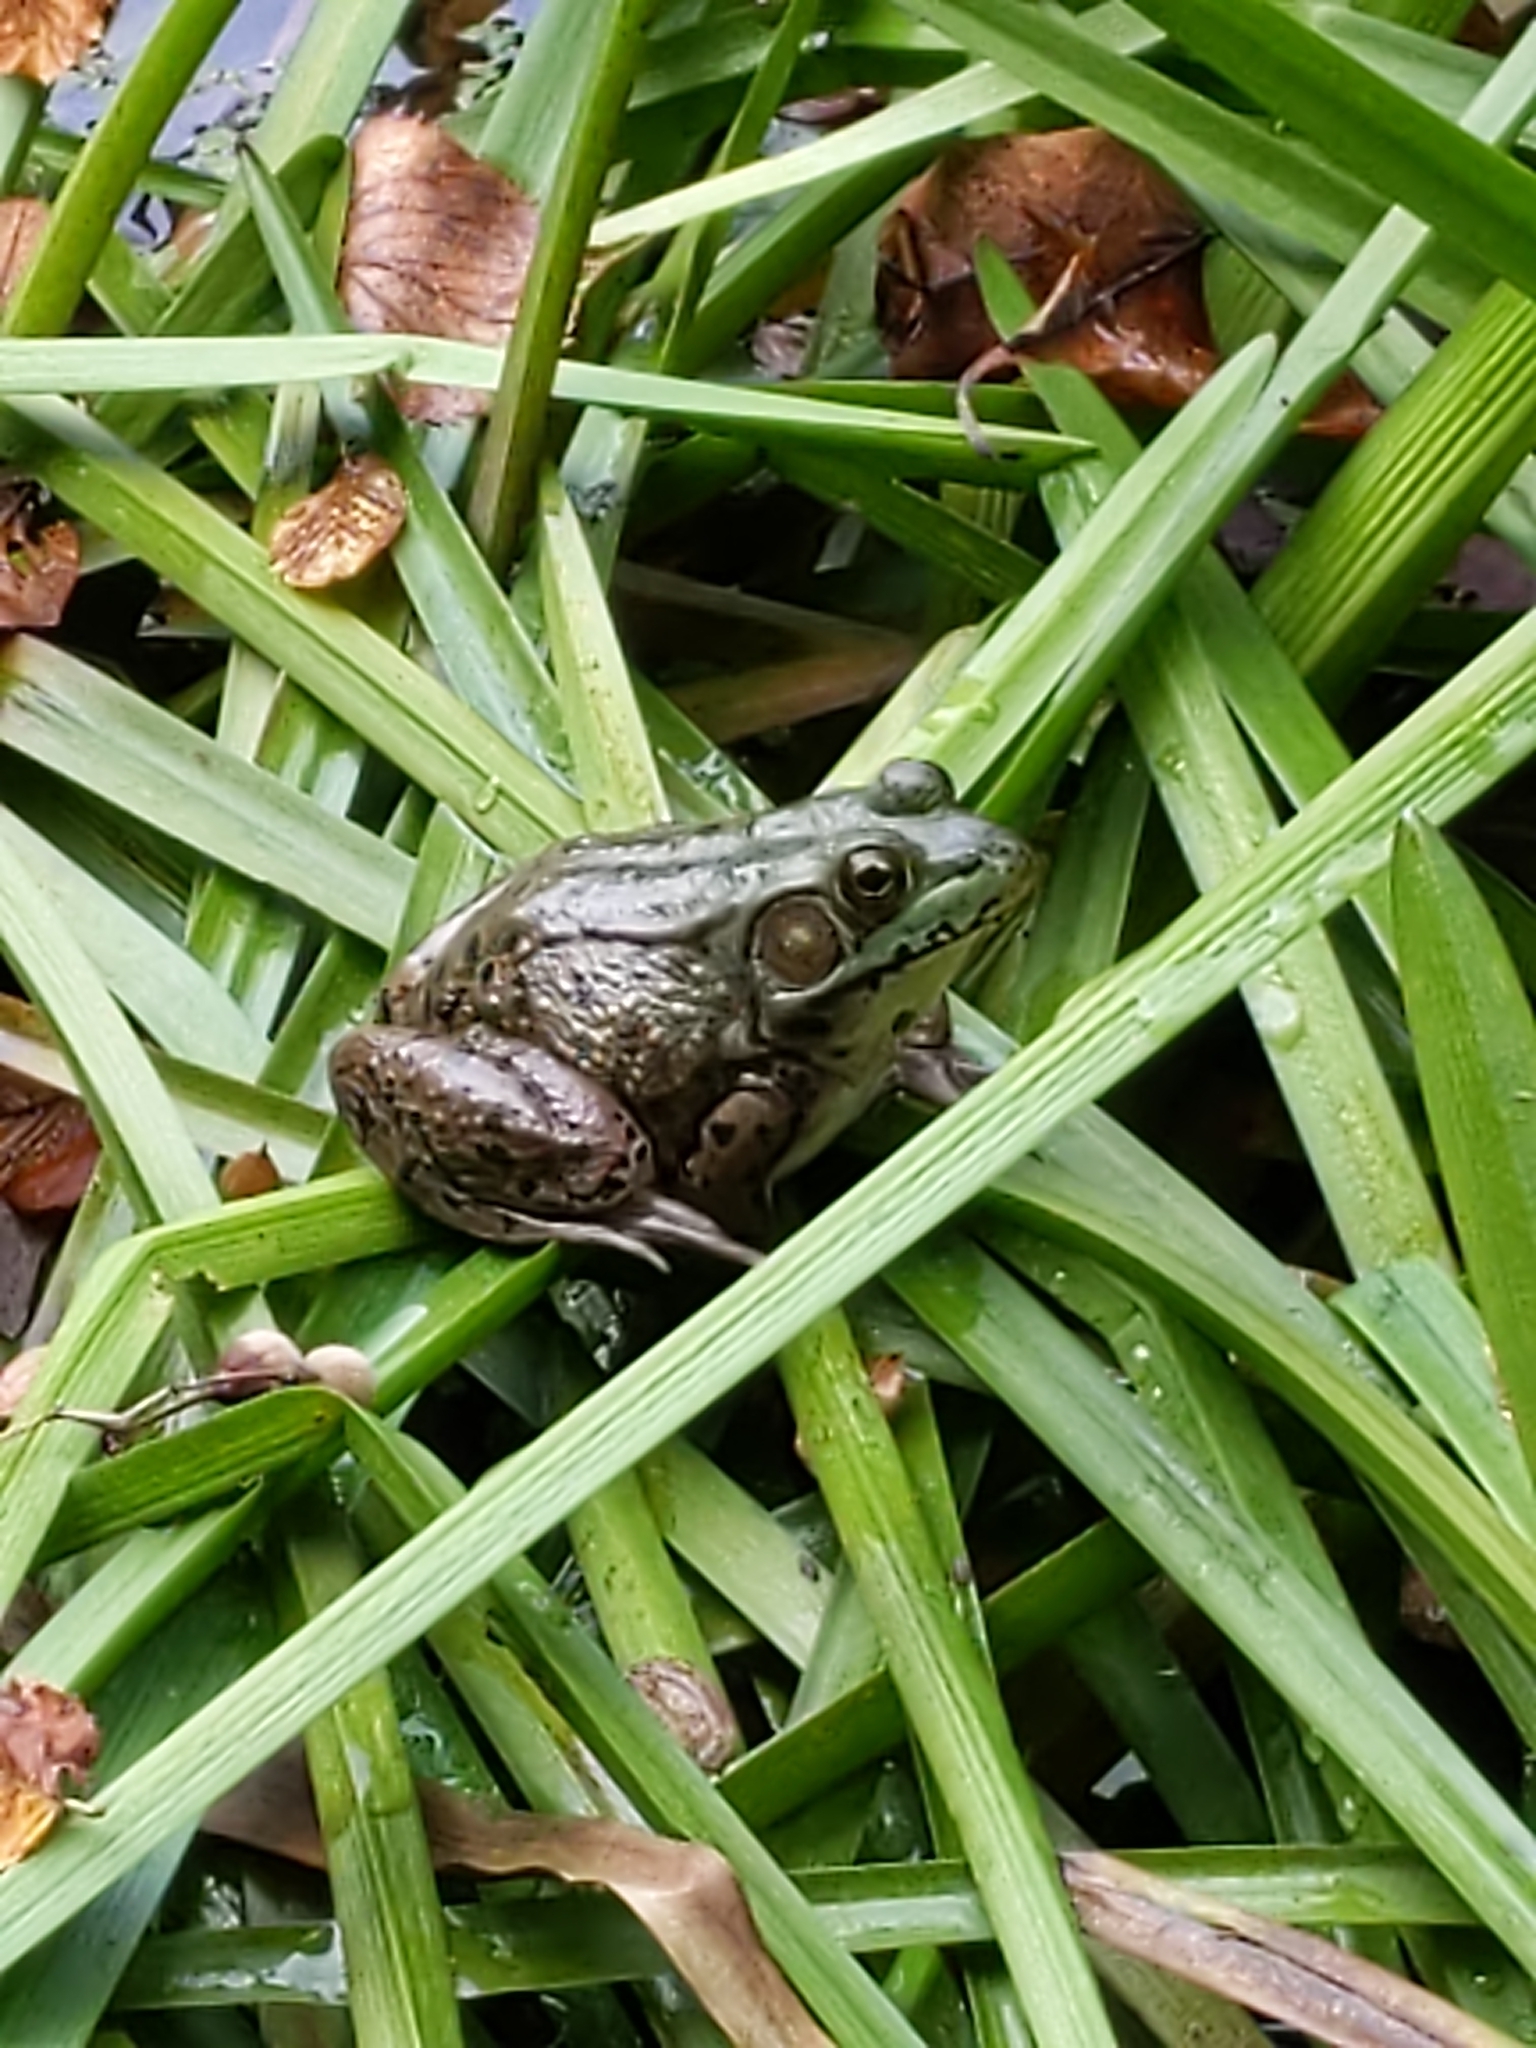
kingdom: Animalia
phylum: Chordata
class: Amphibia
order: Anura
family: Ranidae
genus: Lithobates
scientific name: Lithobates clamitans
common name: Green frog
